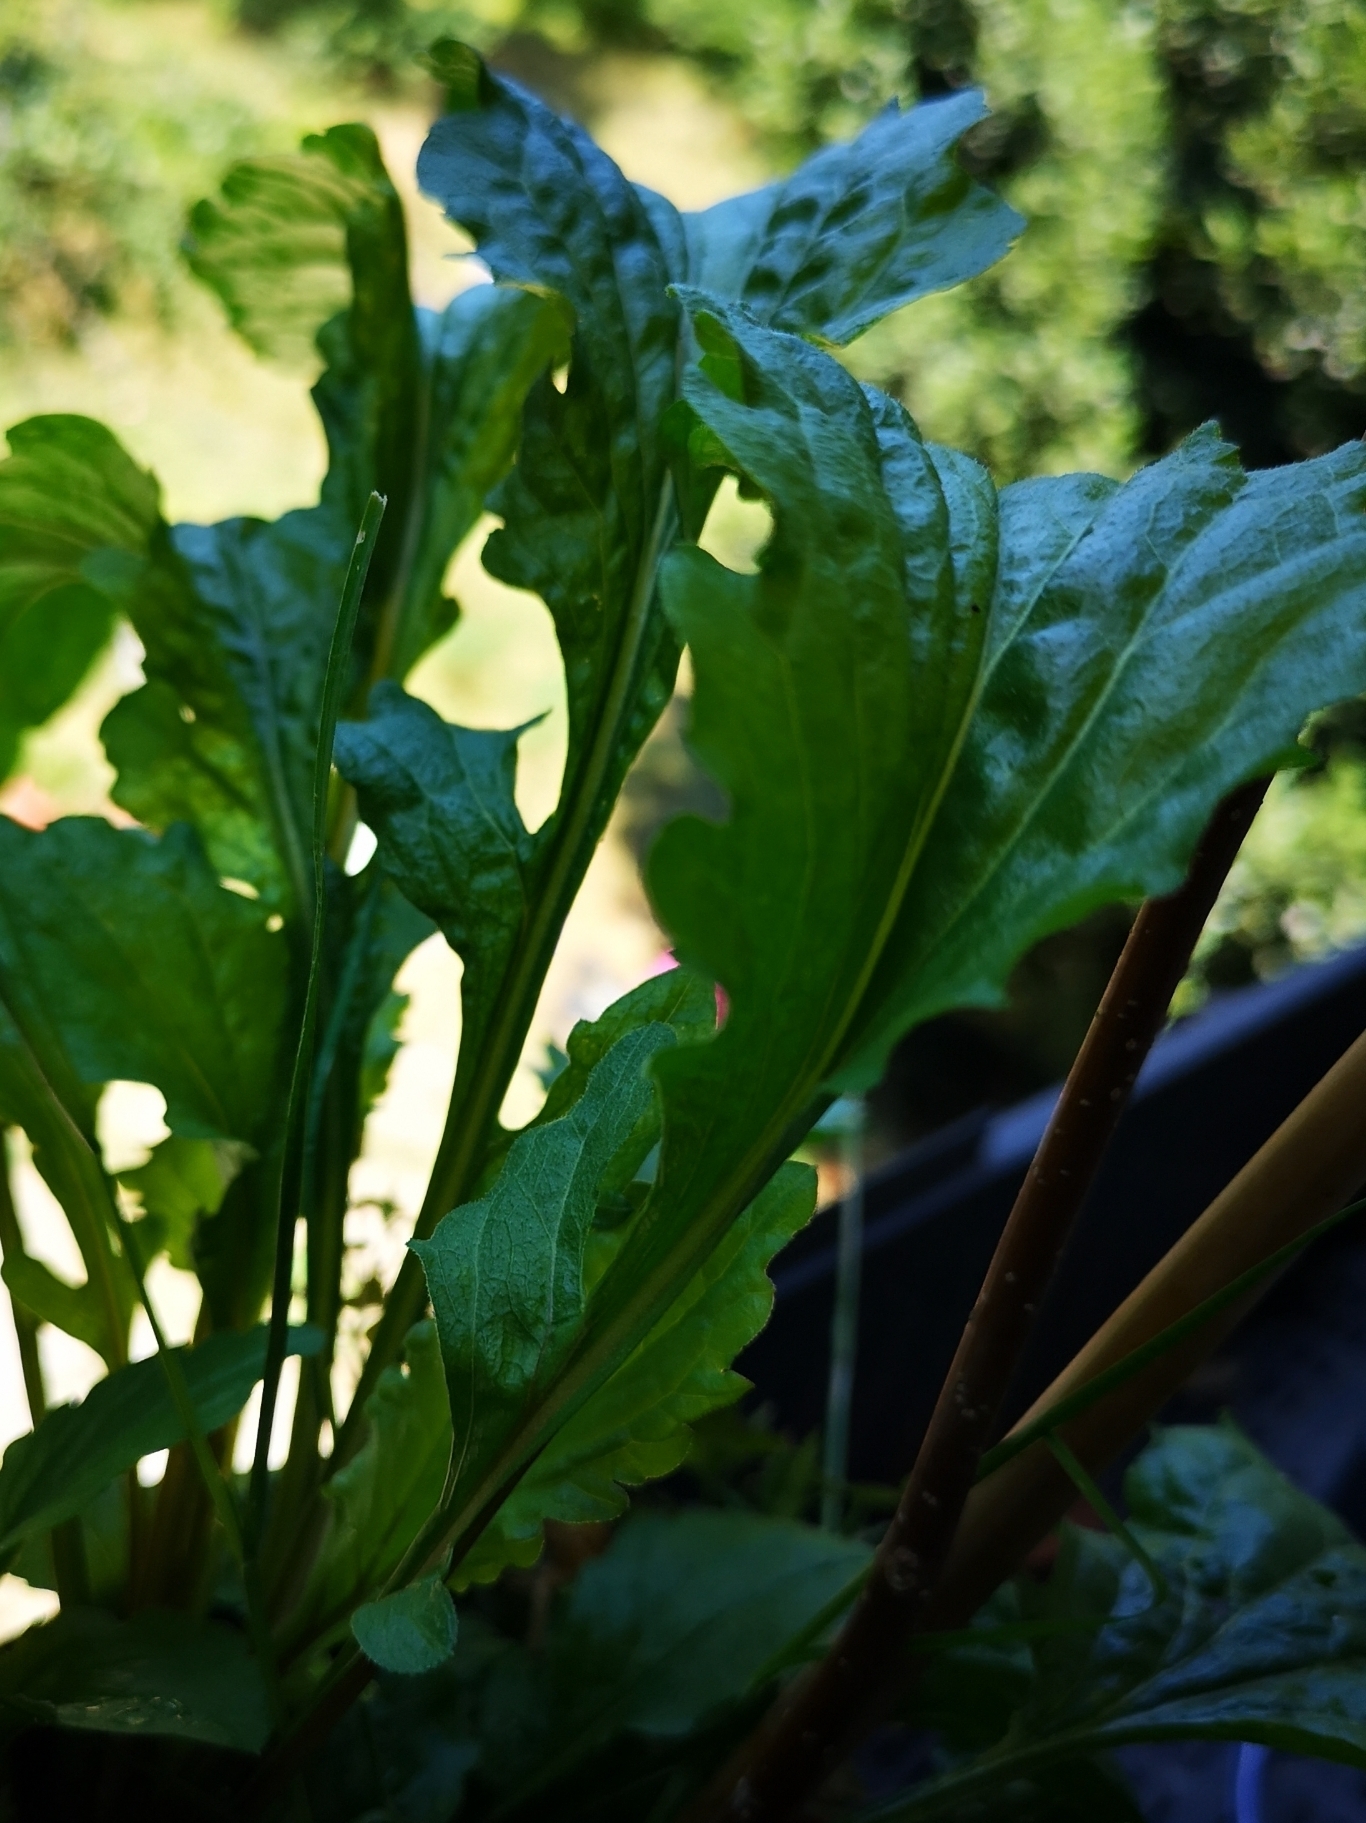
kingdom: Plantae
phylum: Tracheophyta
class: Magnoliopsida
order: Asterales
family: Asteraceae
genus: Erigeron
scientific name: Erigeron annuus
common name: Tall fleabane
